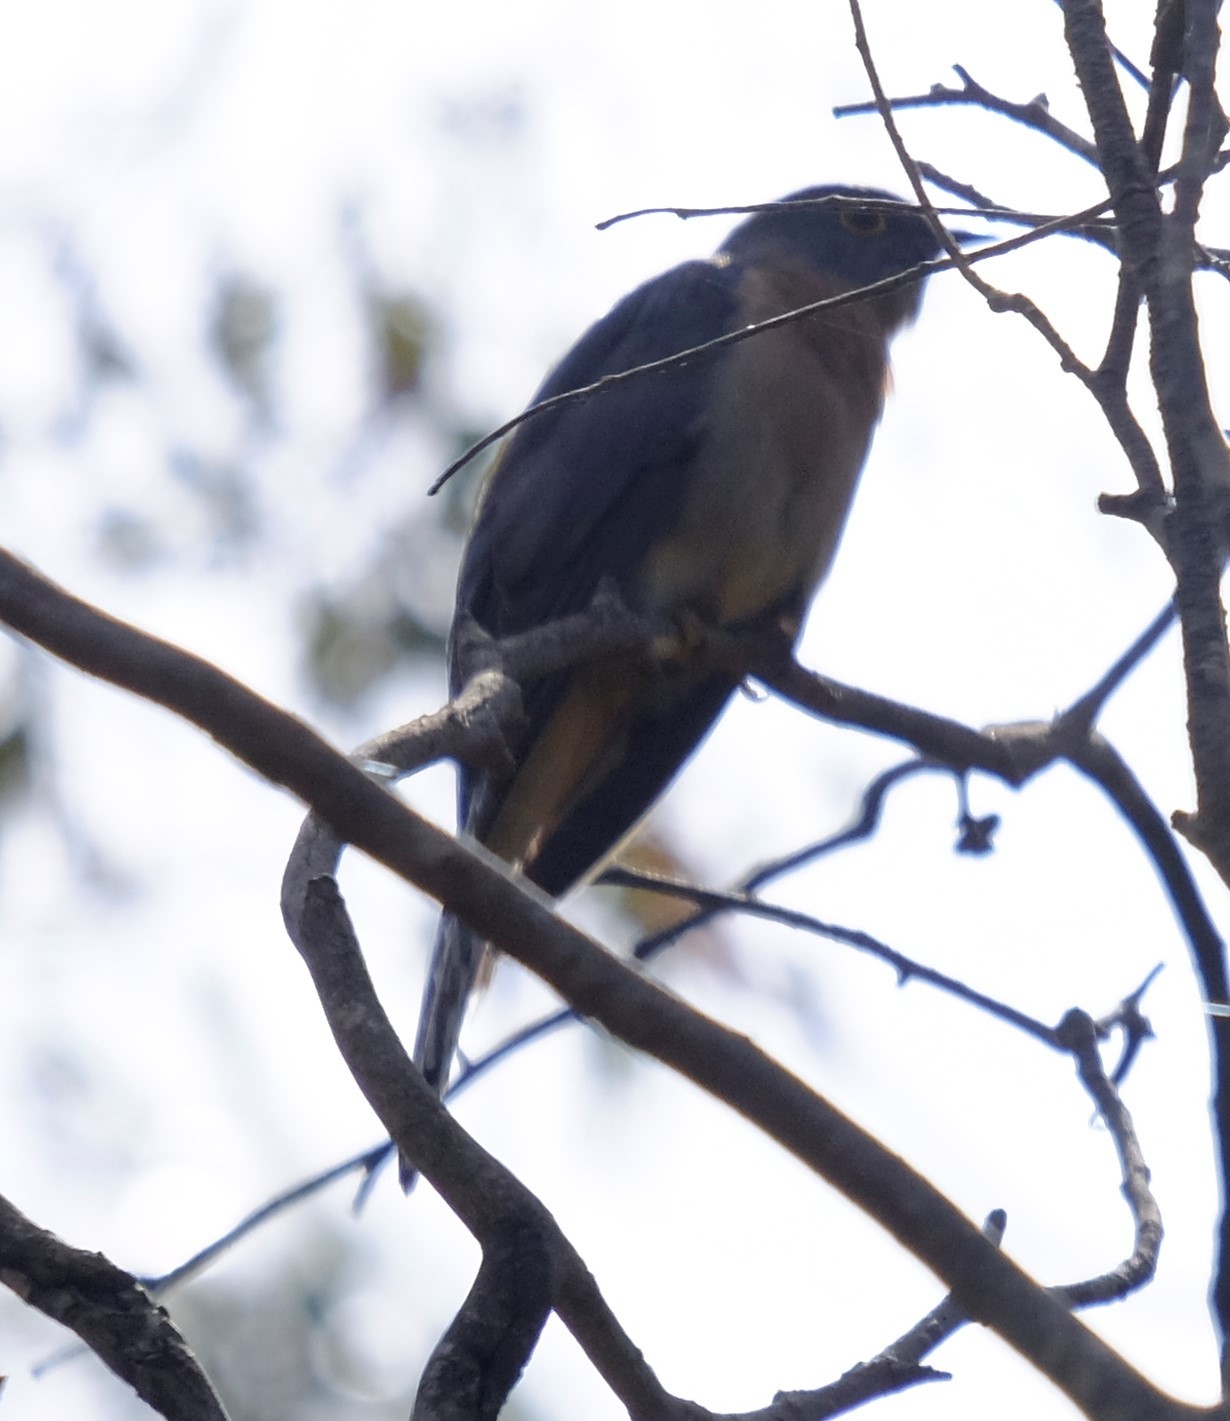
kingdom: Animalia
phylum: Chordata
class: Aves
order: Cuculiformes
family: Cuculidae
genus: Cacomantis
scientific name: Cacomantis flabelliformis
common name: Fan-tailed cuckoo
